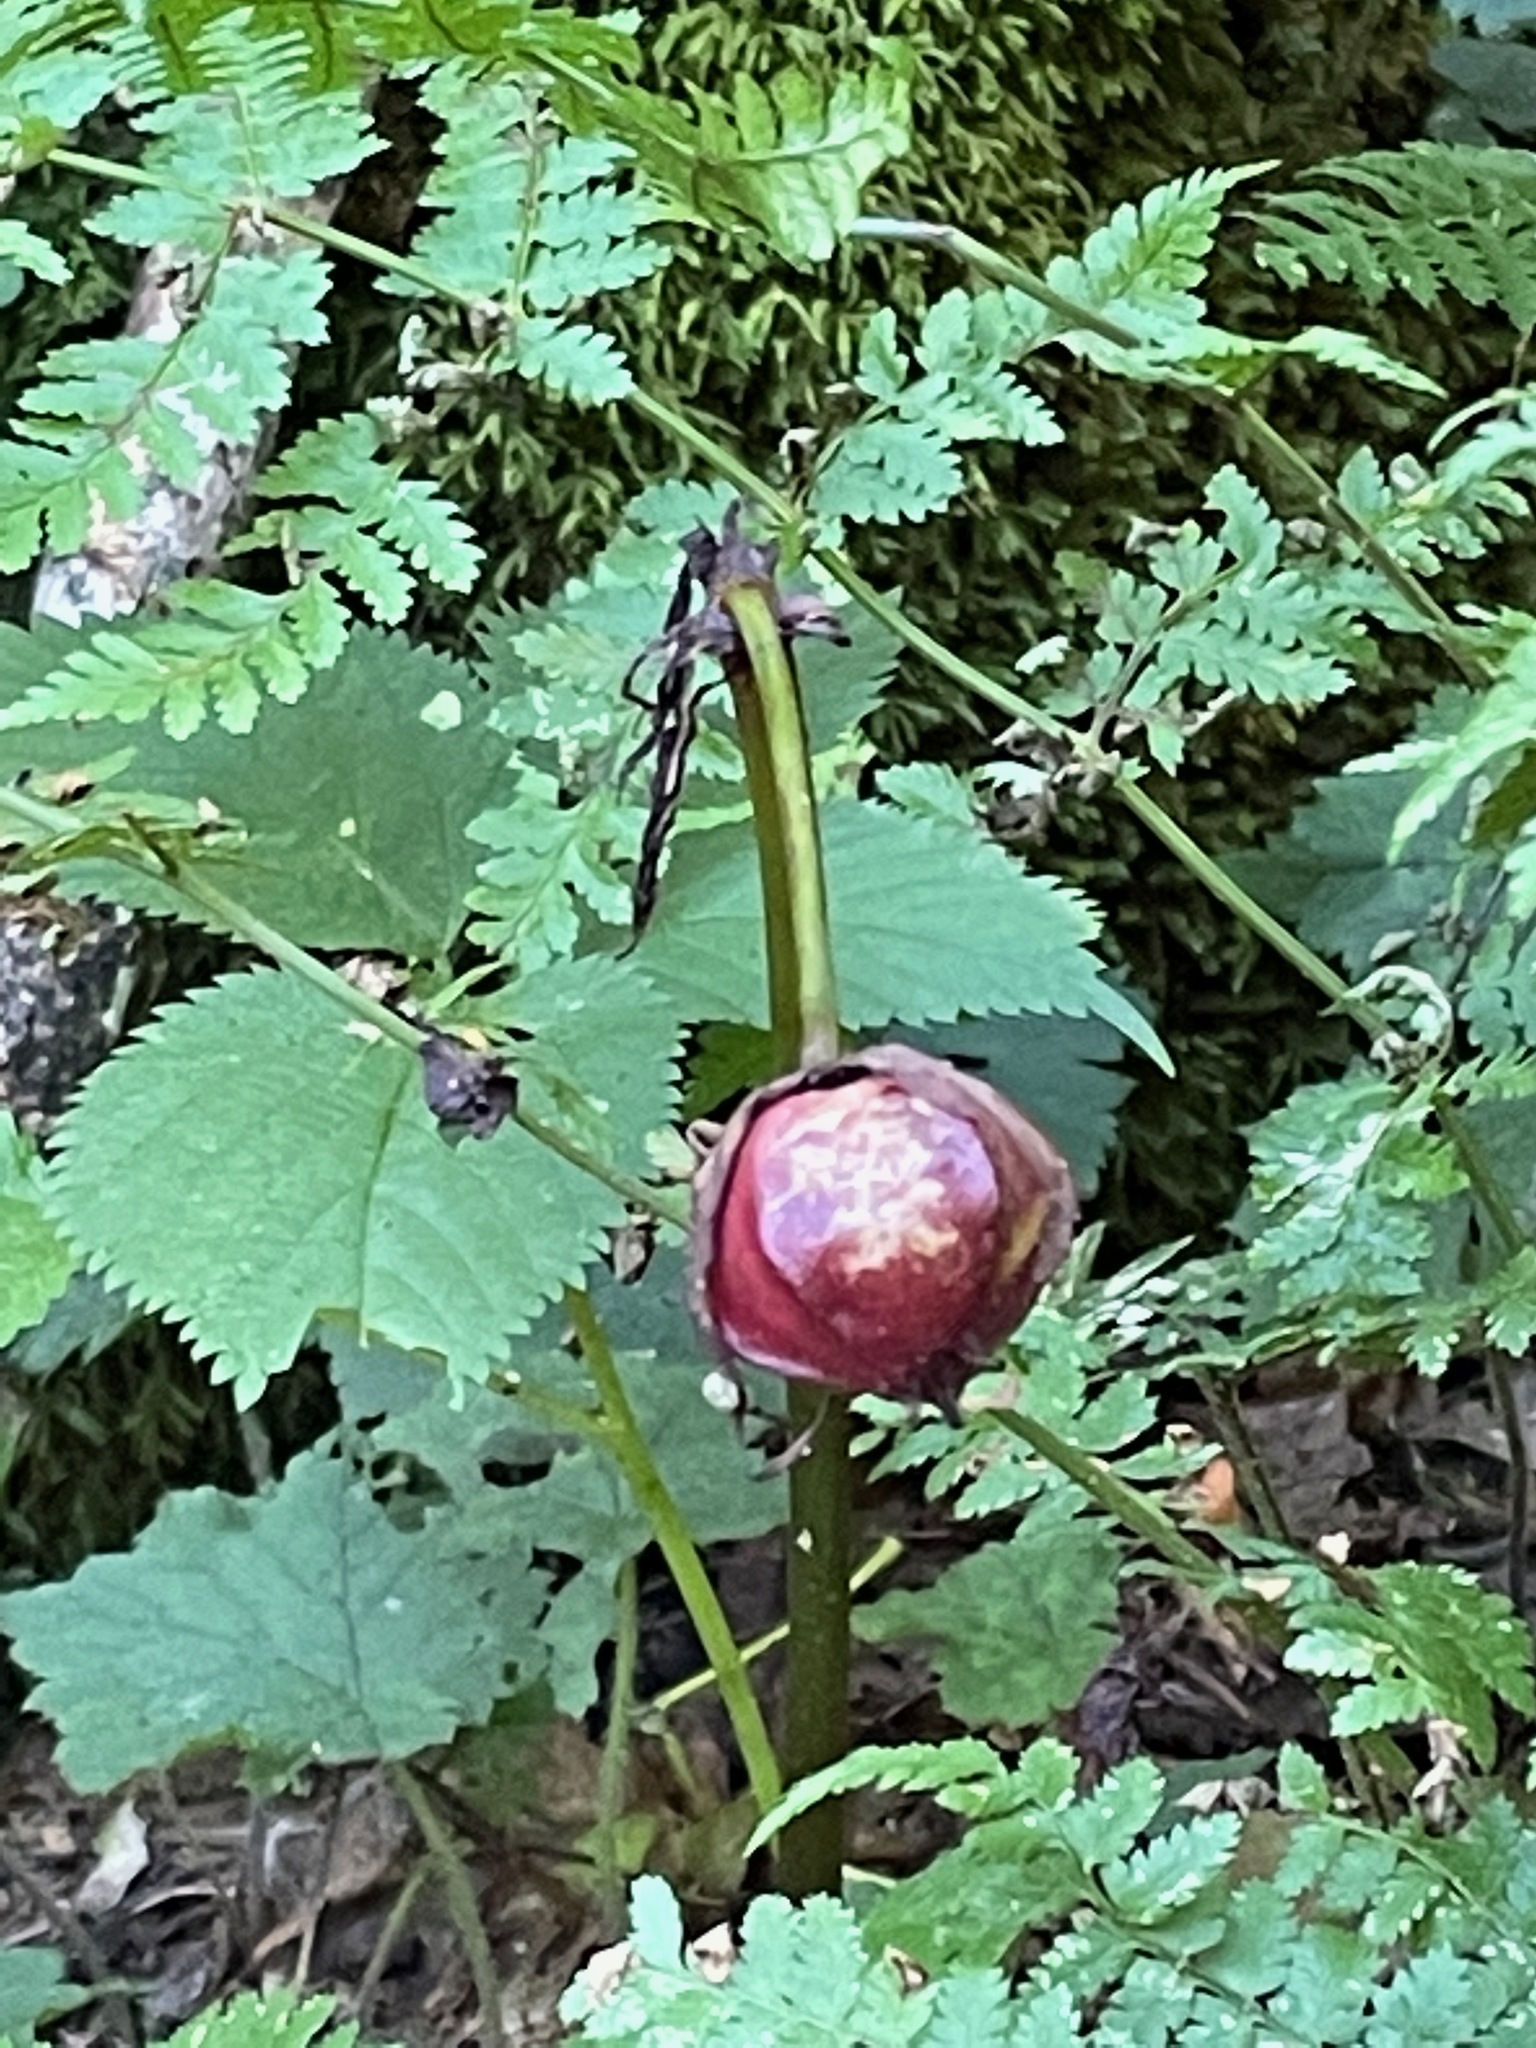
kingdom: Plantae
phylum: Tracheophyta
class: Liliopsida
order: Liliales
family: Melanthiaceae
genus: Trillium
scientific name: Trillium erectum
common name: Purple trillium
